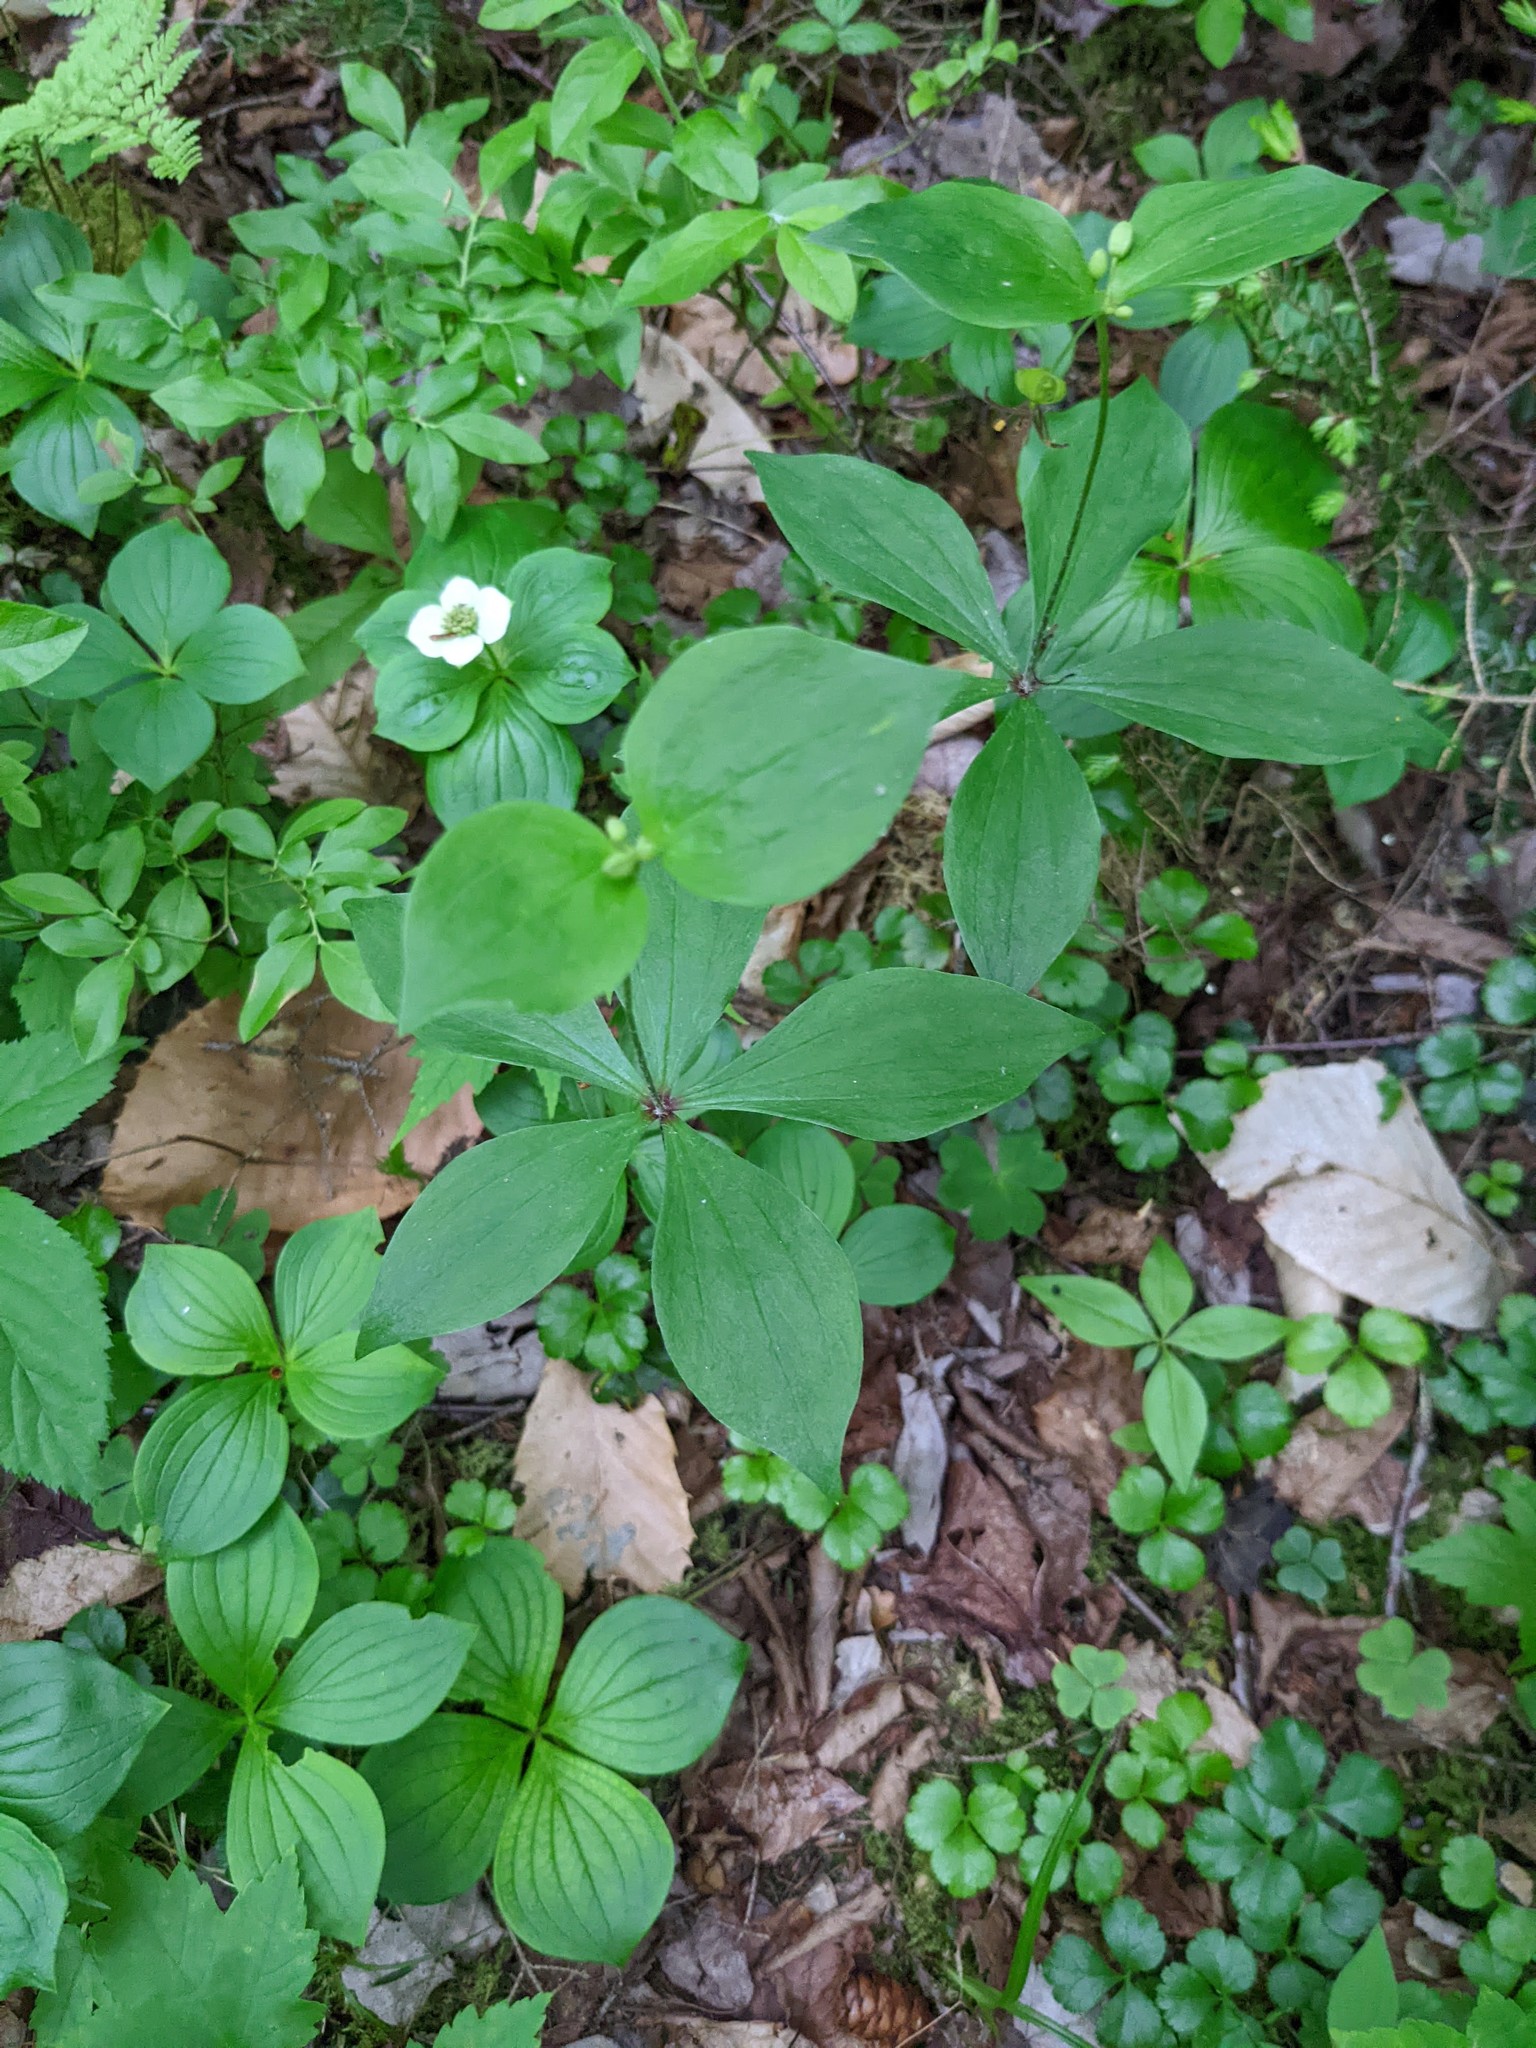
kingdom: Plantae
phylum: Tracheophyta
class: Liliopsida
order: Liliales
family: Liliaceae
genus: Medeola
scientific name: Medeola virginiana
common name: Indian cucumber-root
